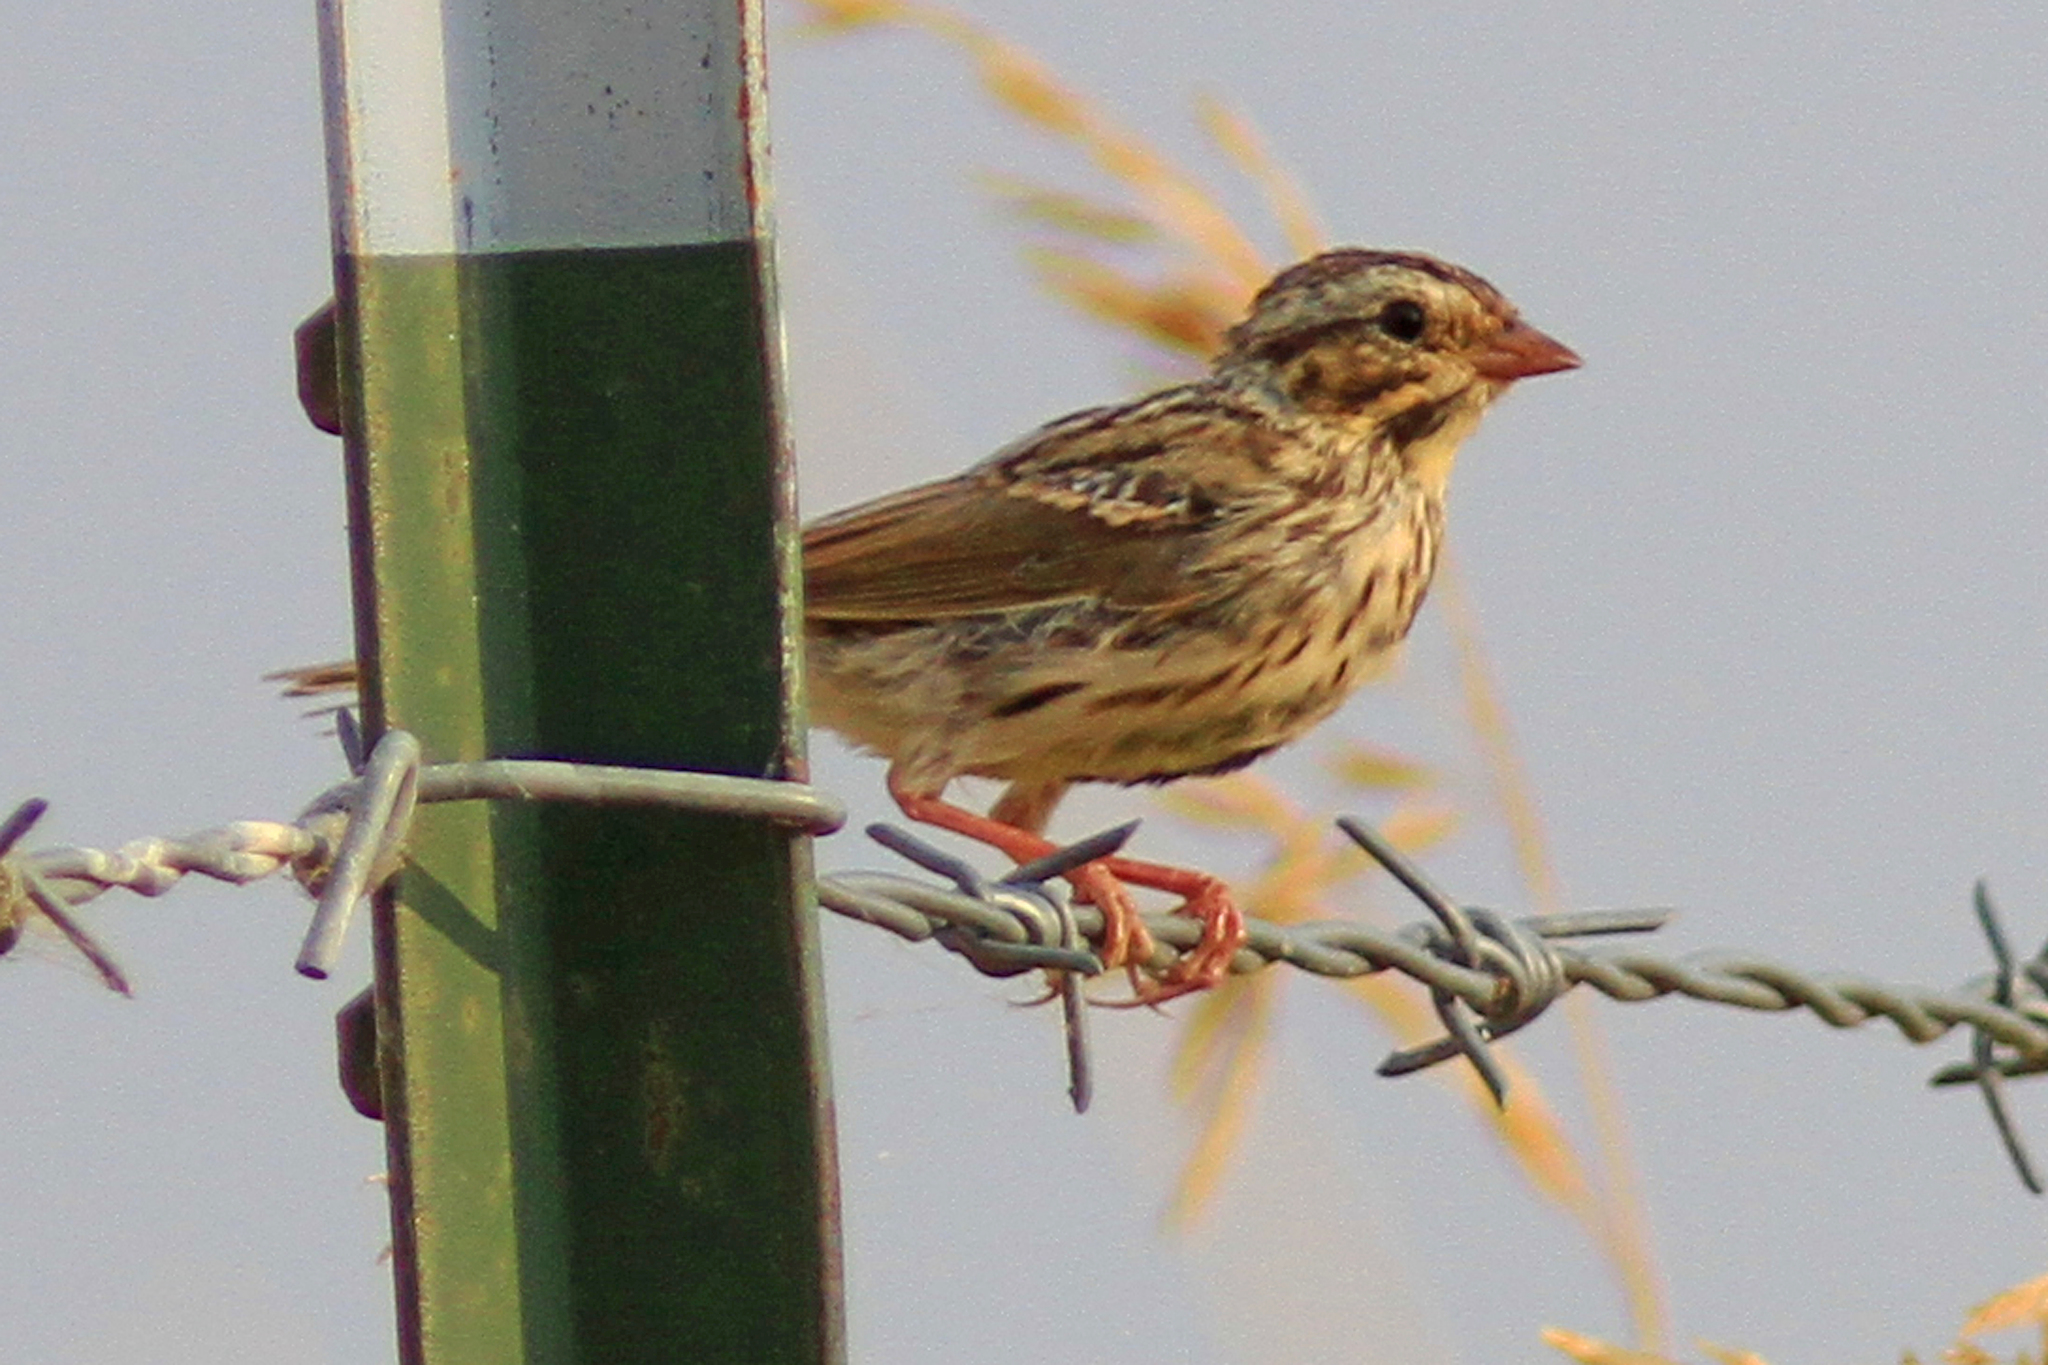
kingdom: Animalia
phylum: Chordata
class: Aves
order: Passeriformes
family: Passerellidae
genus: Passerculus
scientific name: Passerculus sandwichensis
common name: Savannah sparrow
